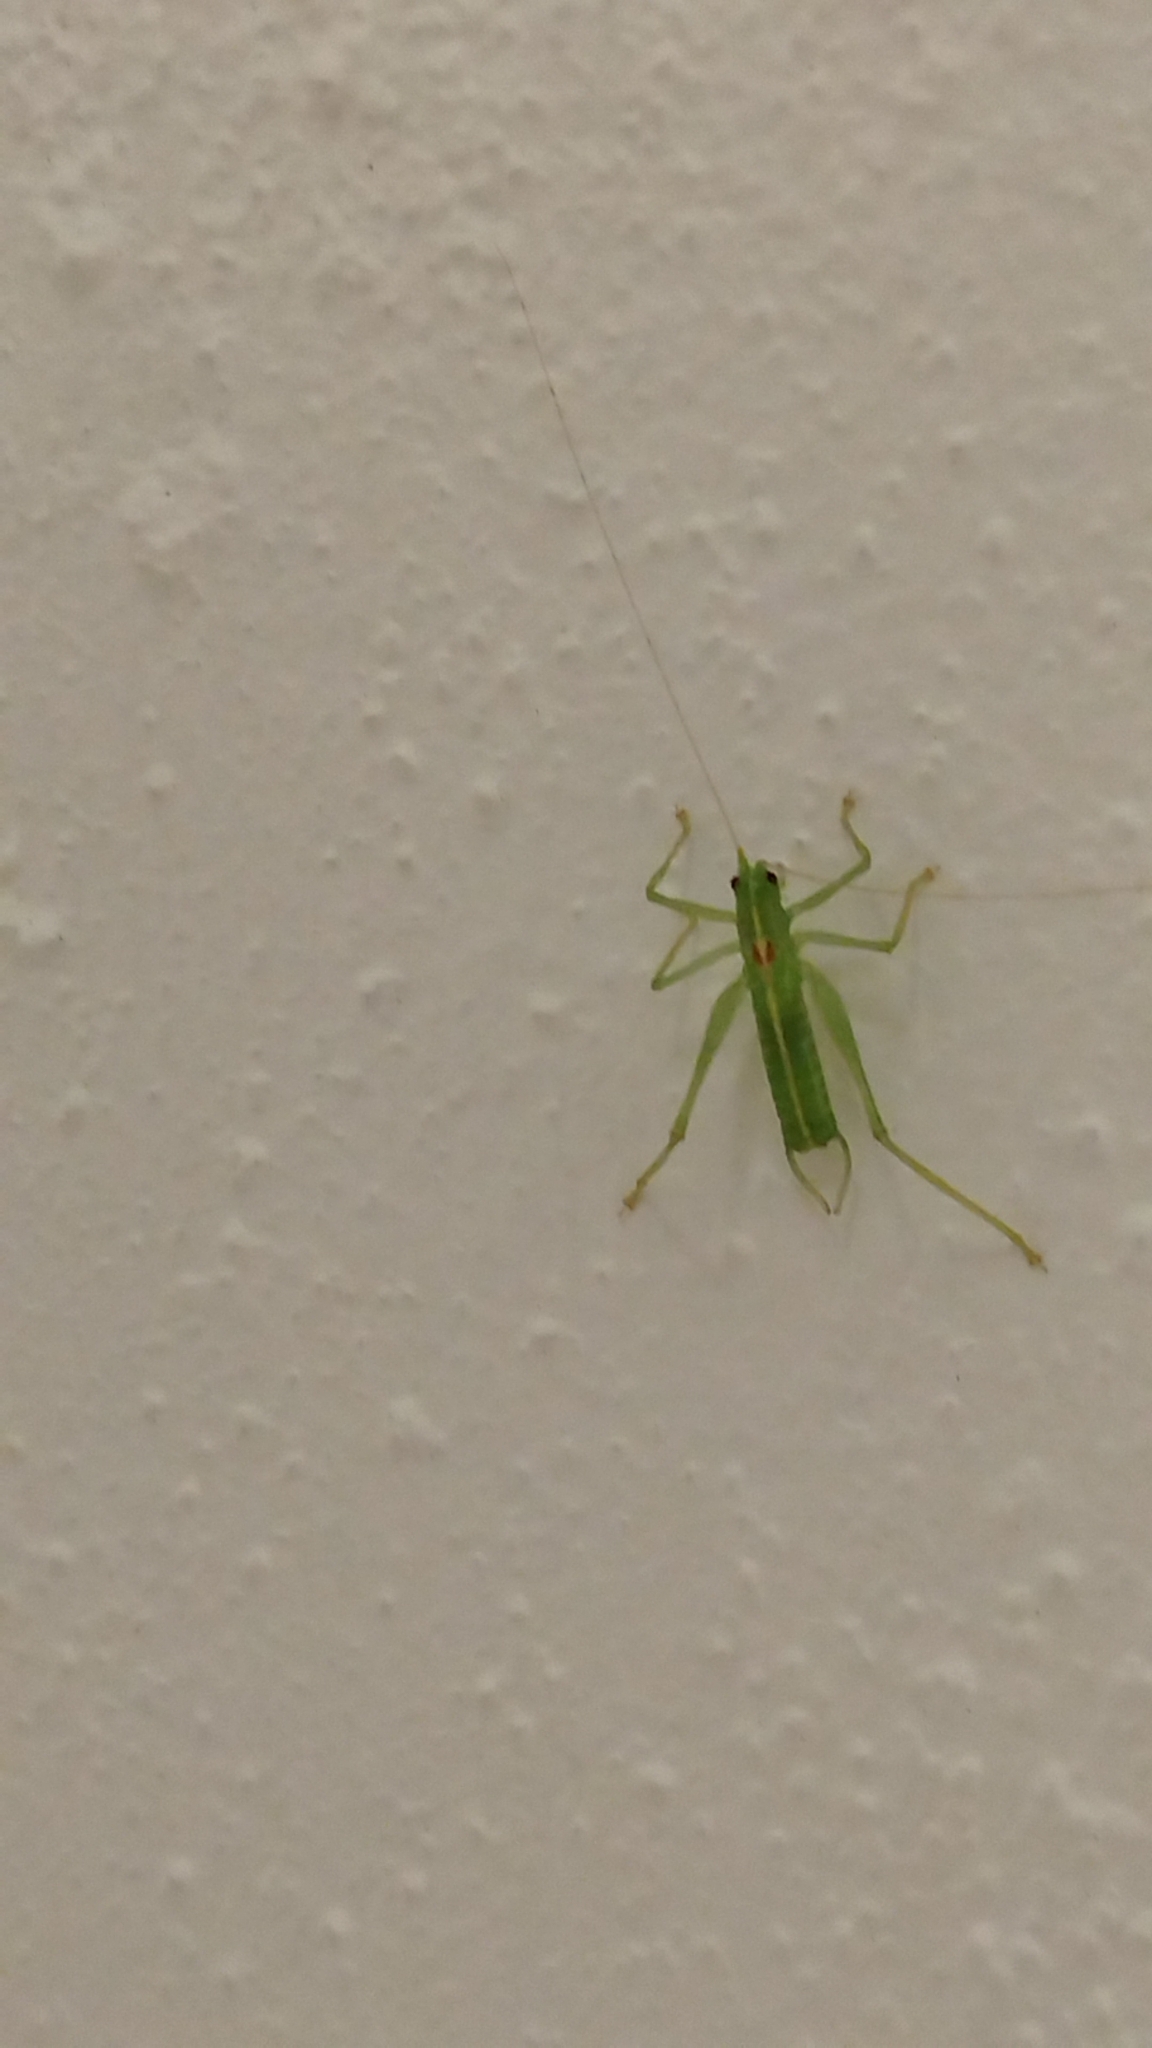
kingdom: Animalia
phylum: Arthropoda
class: Insecta
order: Orthoptera
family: Tettigoniidae
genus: Meconema
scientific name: Meconema meridionale
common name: Southern oak bush-cricket
